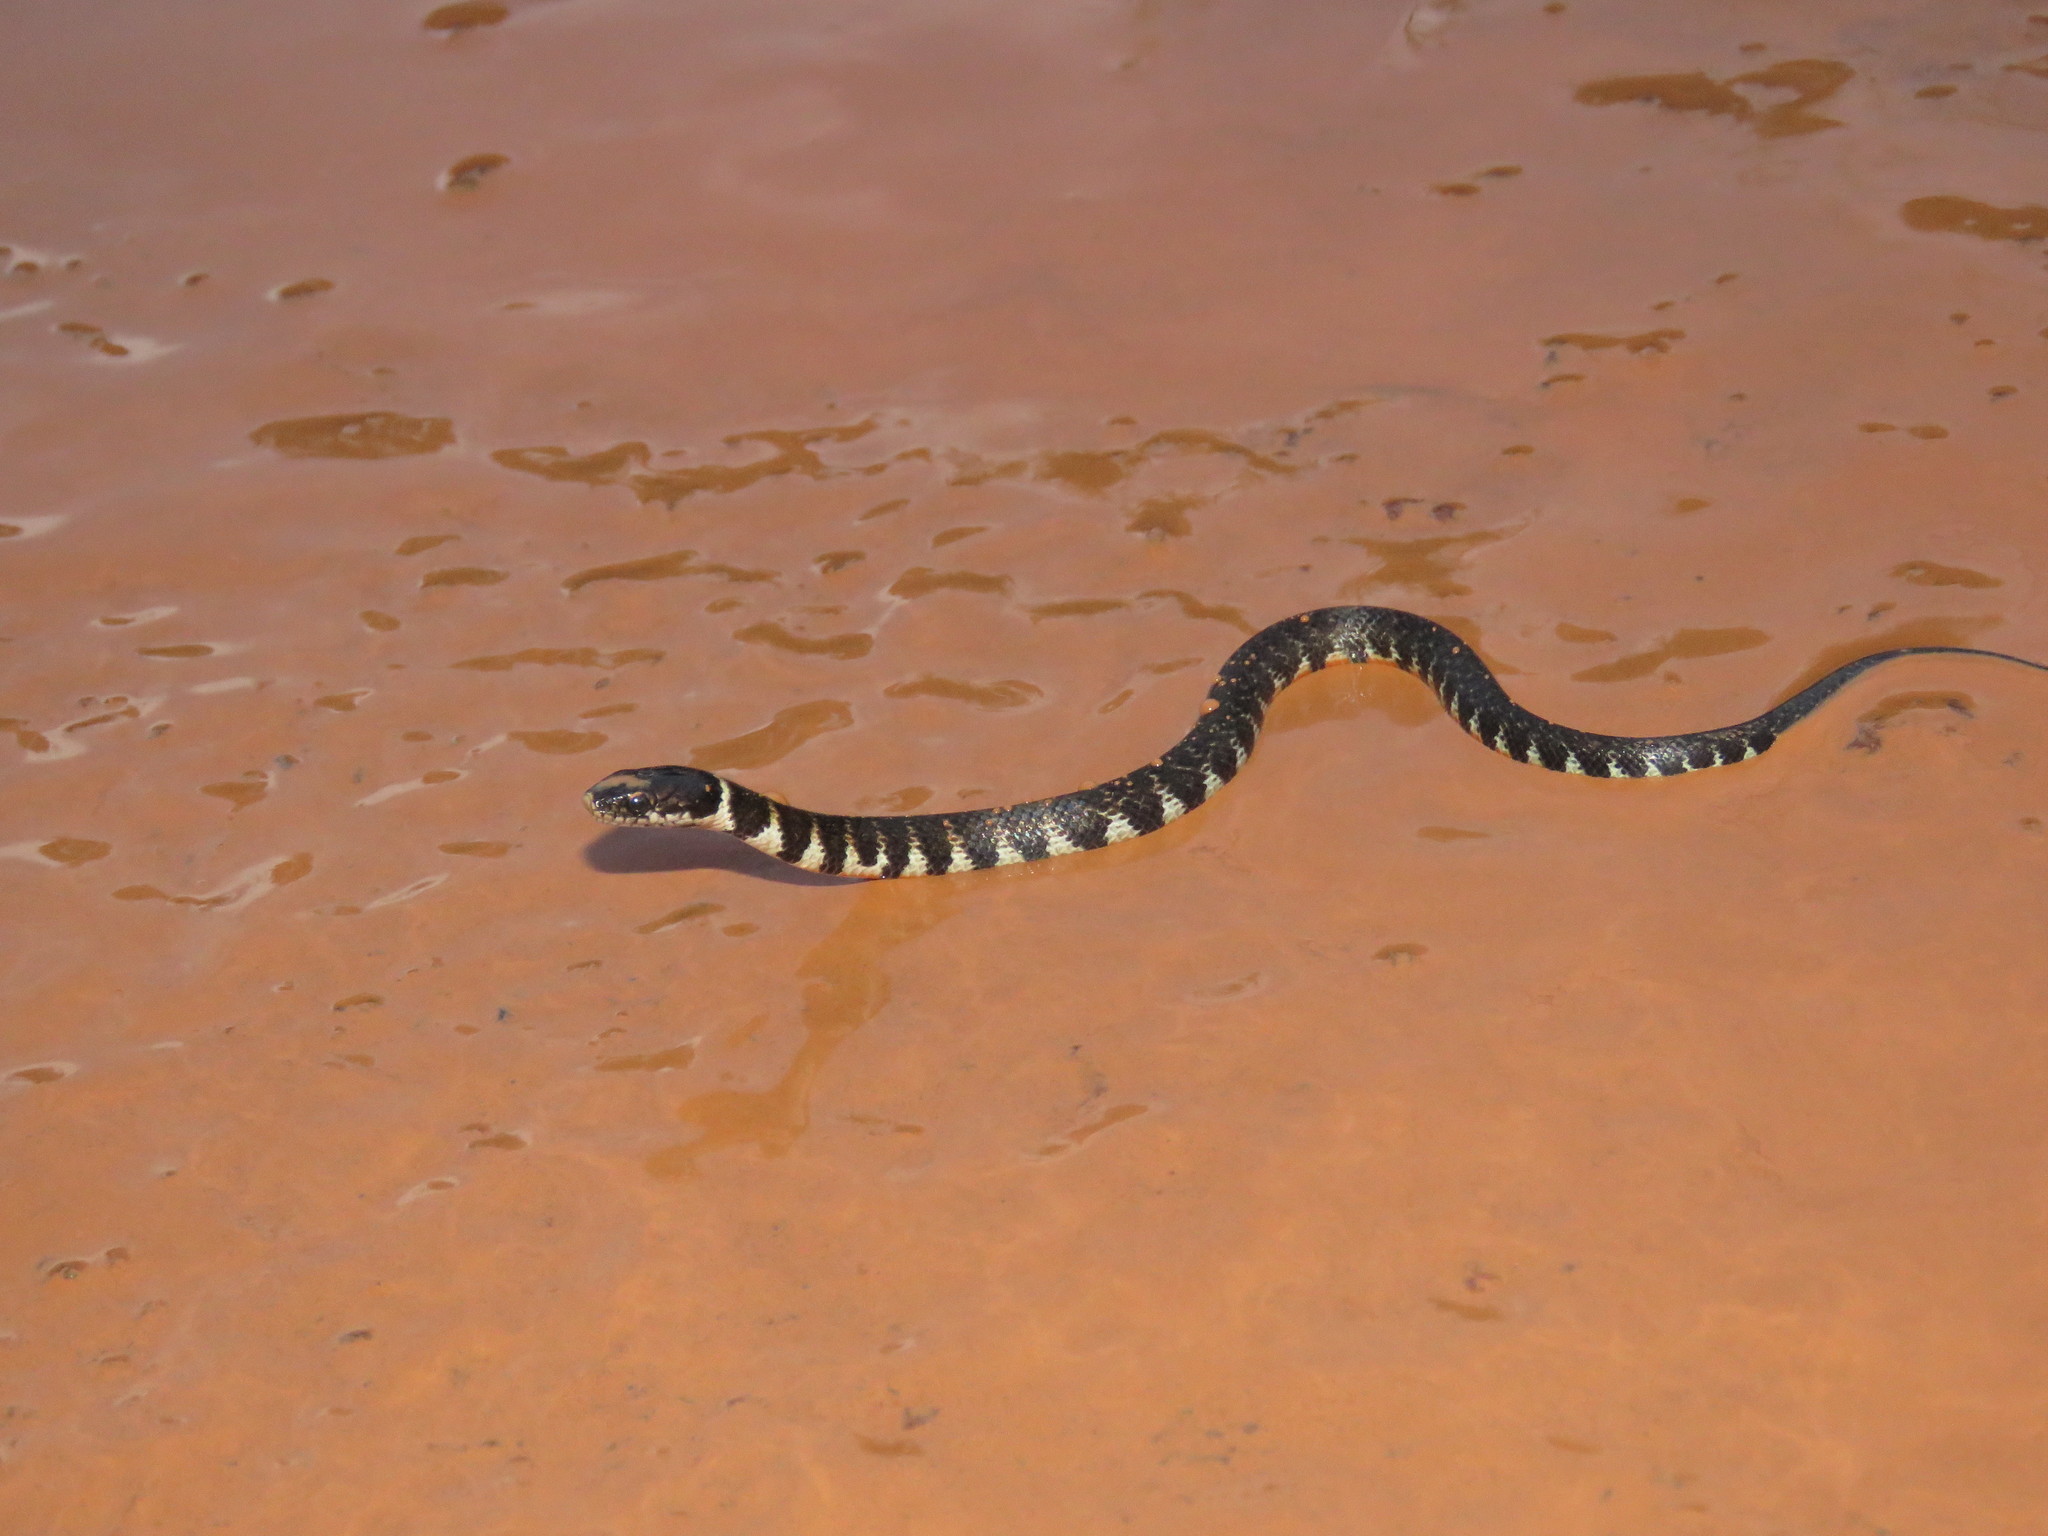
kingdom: Animalia
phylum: Chordata
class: Squamata
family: Colubridae
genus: Erythrolamprus
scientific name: Erythrolamprus taeniogaster
